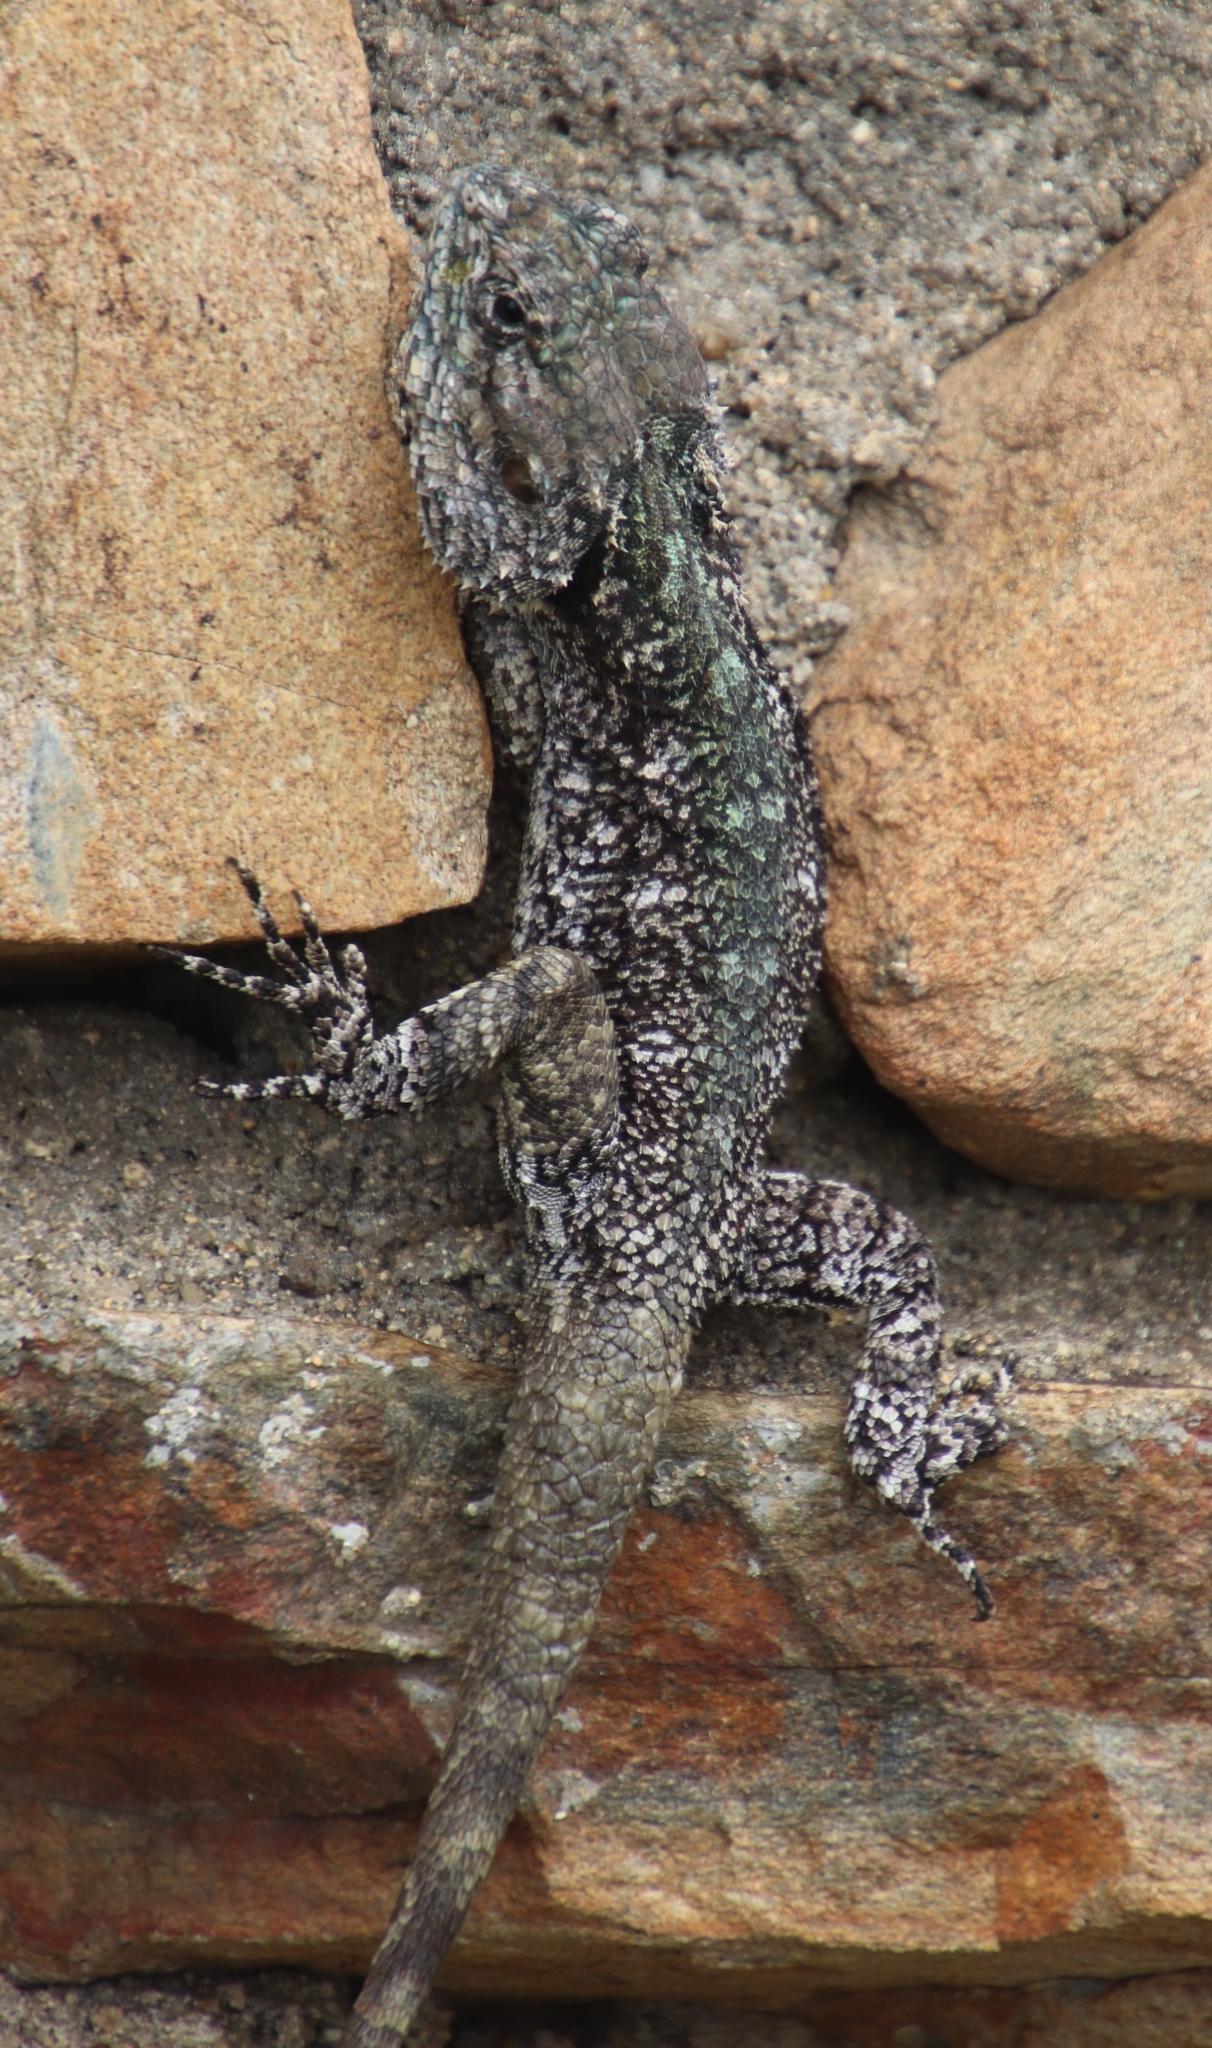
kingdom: Animalia
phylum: Chordata
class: Squamata
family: Agamidae
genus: Acanthocercus
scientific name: Acanthocercus atricollis
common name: Southern tree agama
